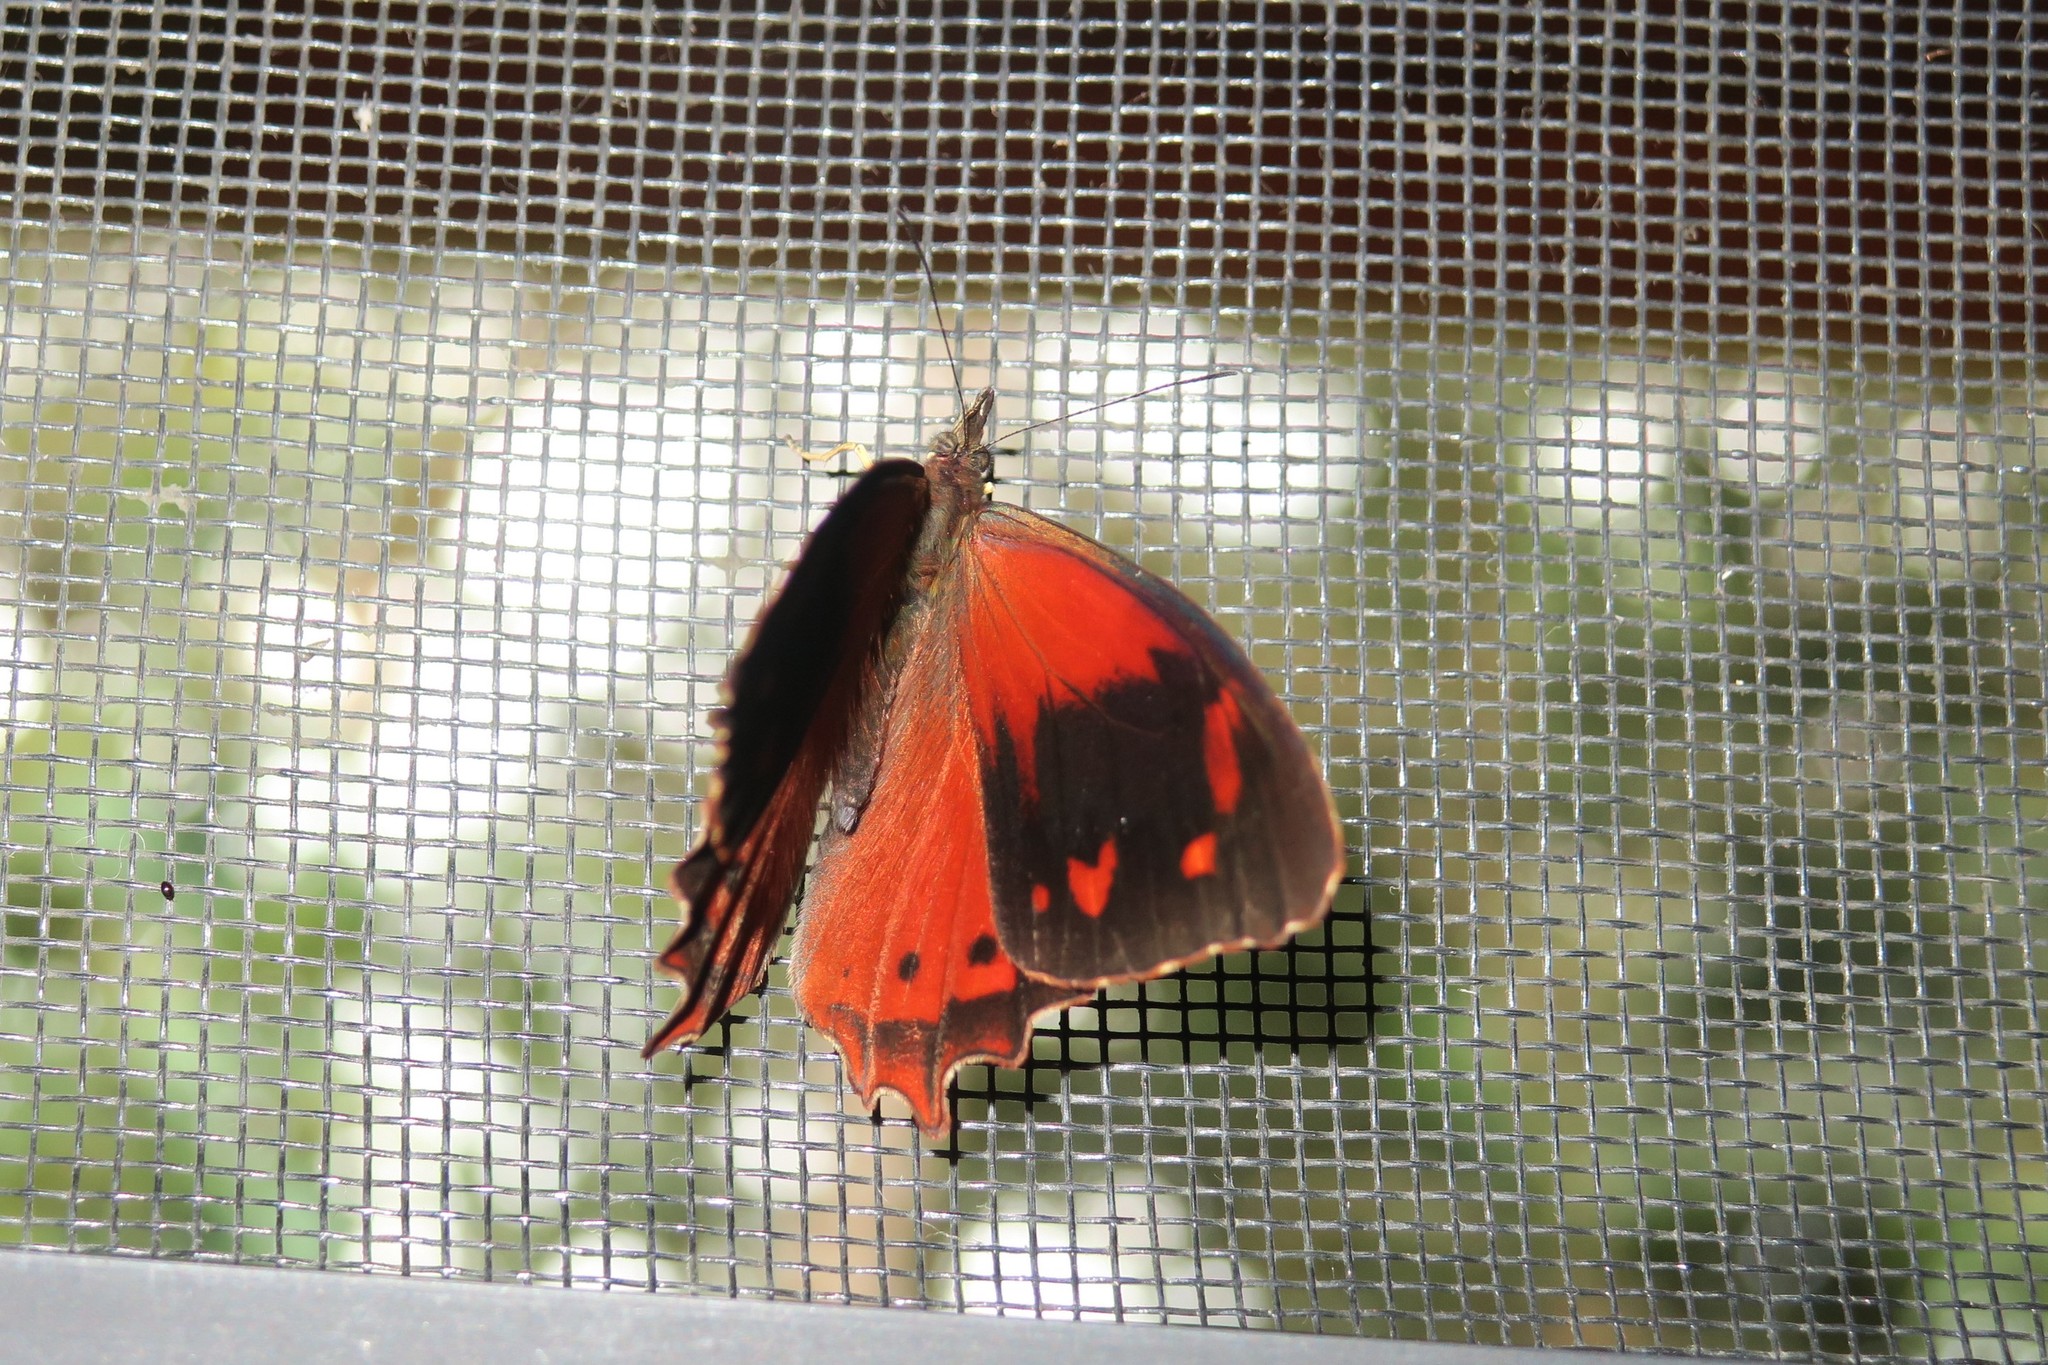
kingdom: Animalia
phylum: Arthropoda
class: Insecta
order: Lepidoptera
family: Nymphalidae
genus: Lasiophila
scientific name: Lasiophila orbifera
